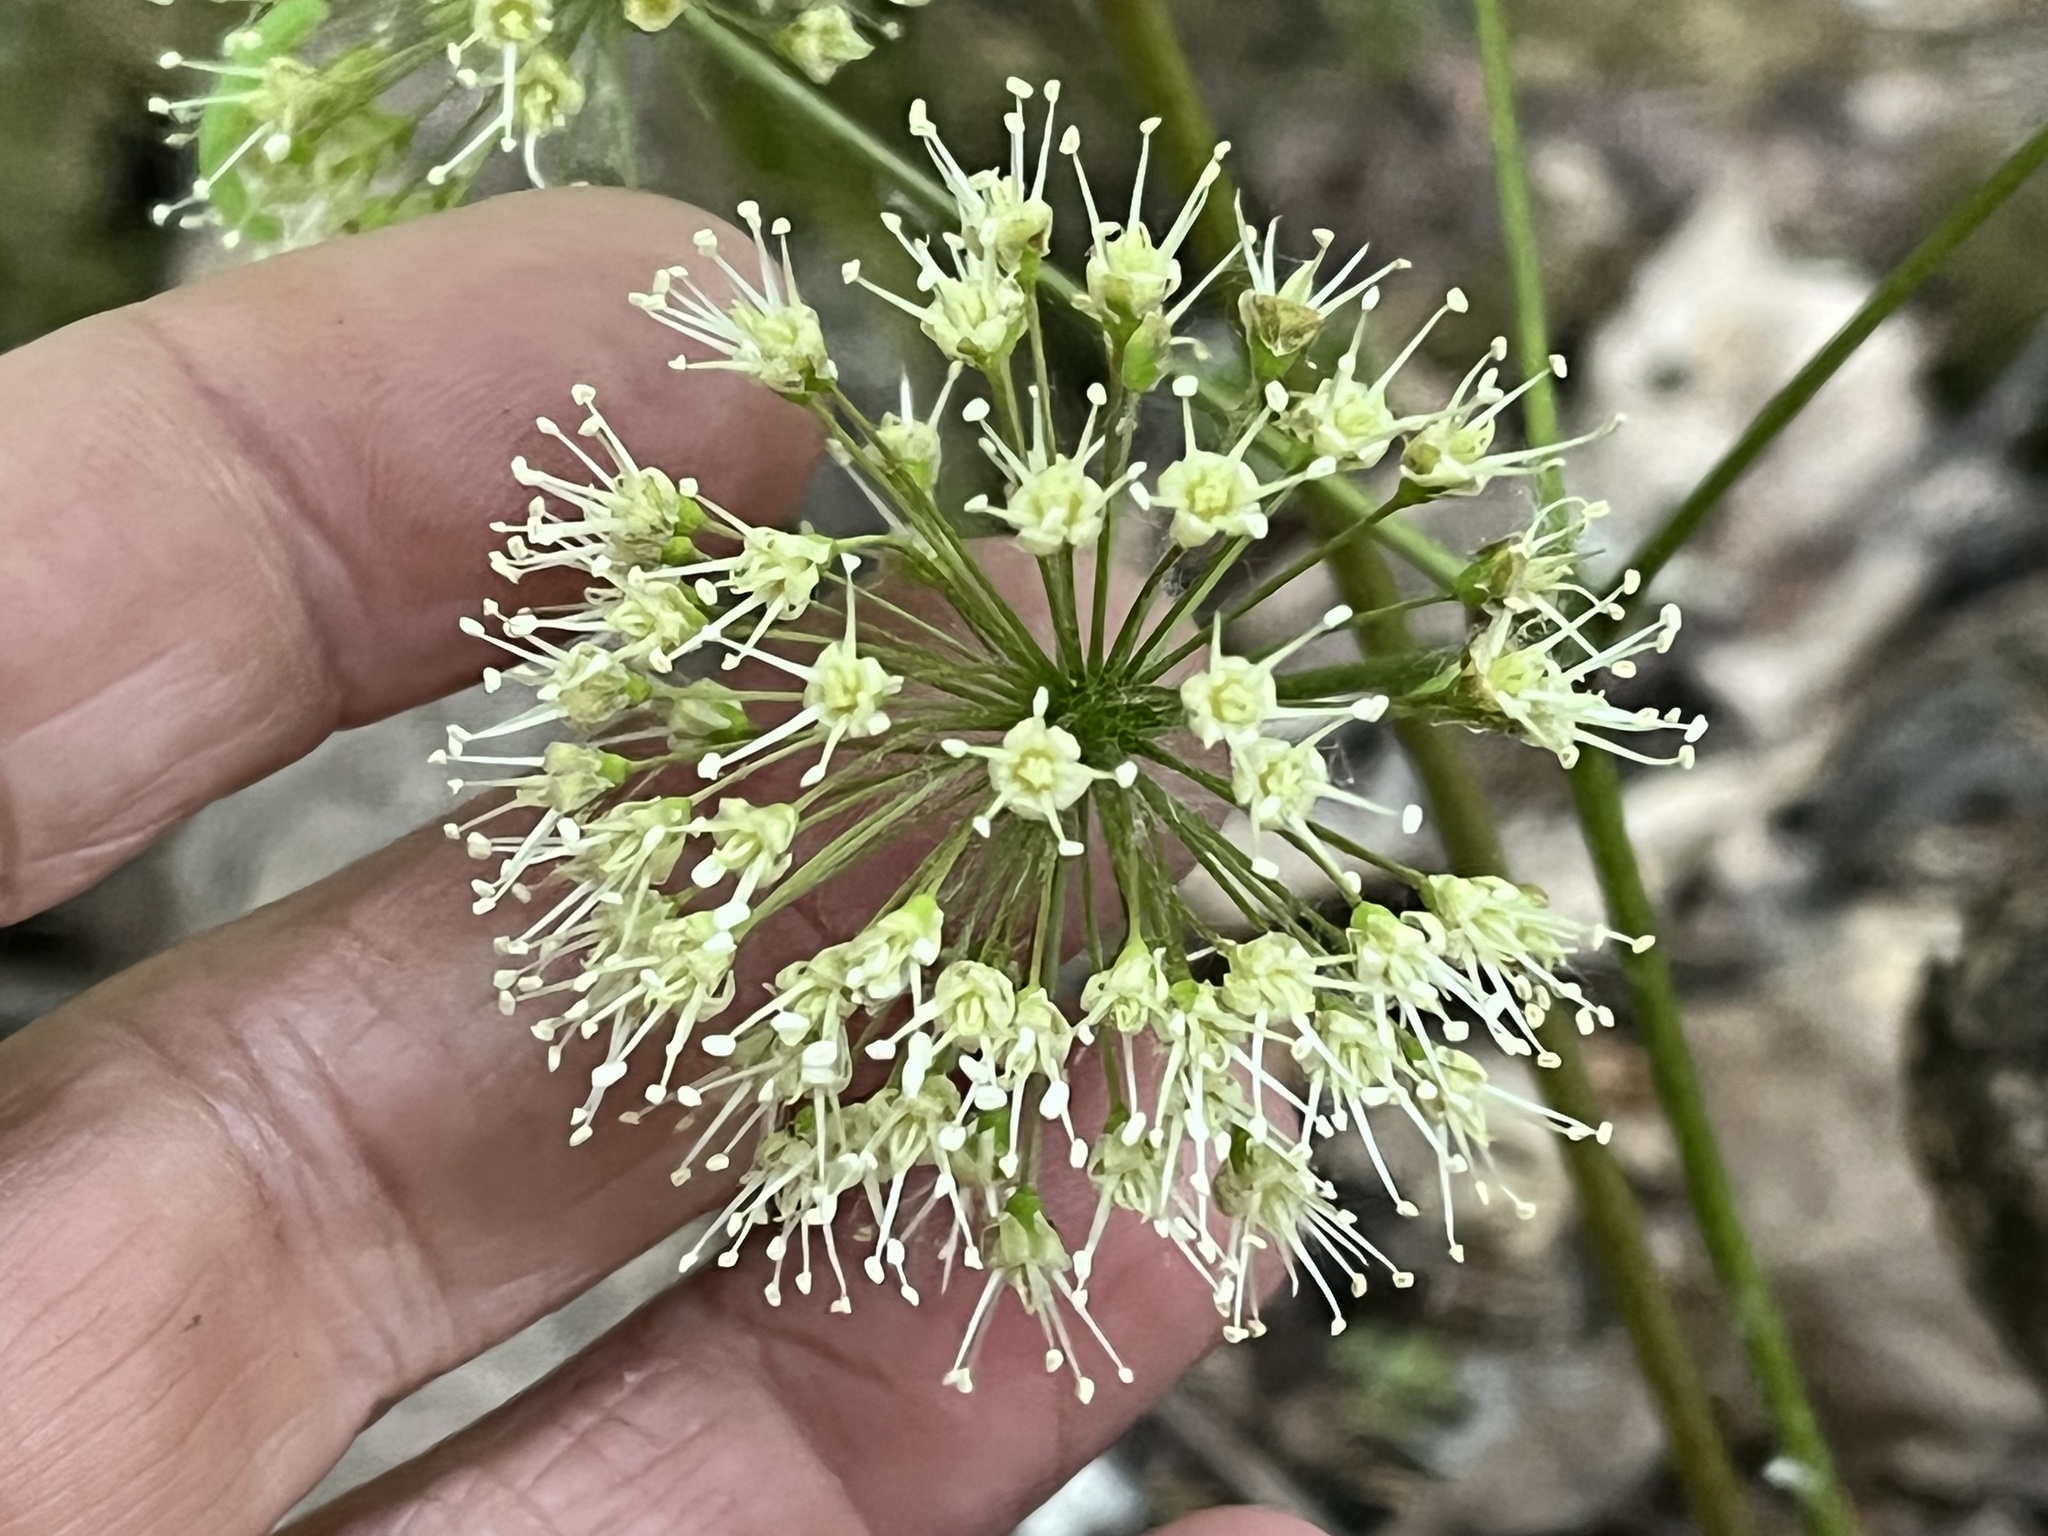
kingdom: Plantae
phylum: Tracheophyta
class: Magnoliopsida
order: Apiales
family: Araliaceae
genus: Aralia
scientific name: Aralia nudicaulis
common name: Wild sarsaparilla
